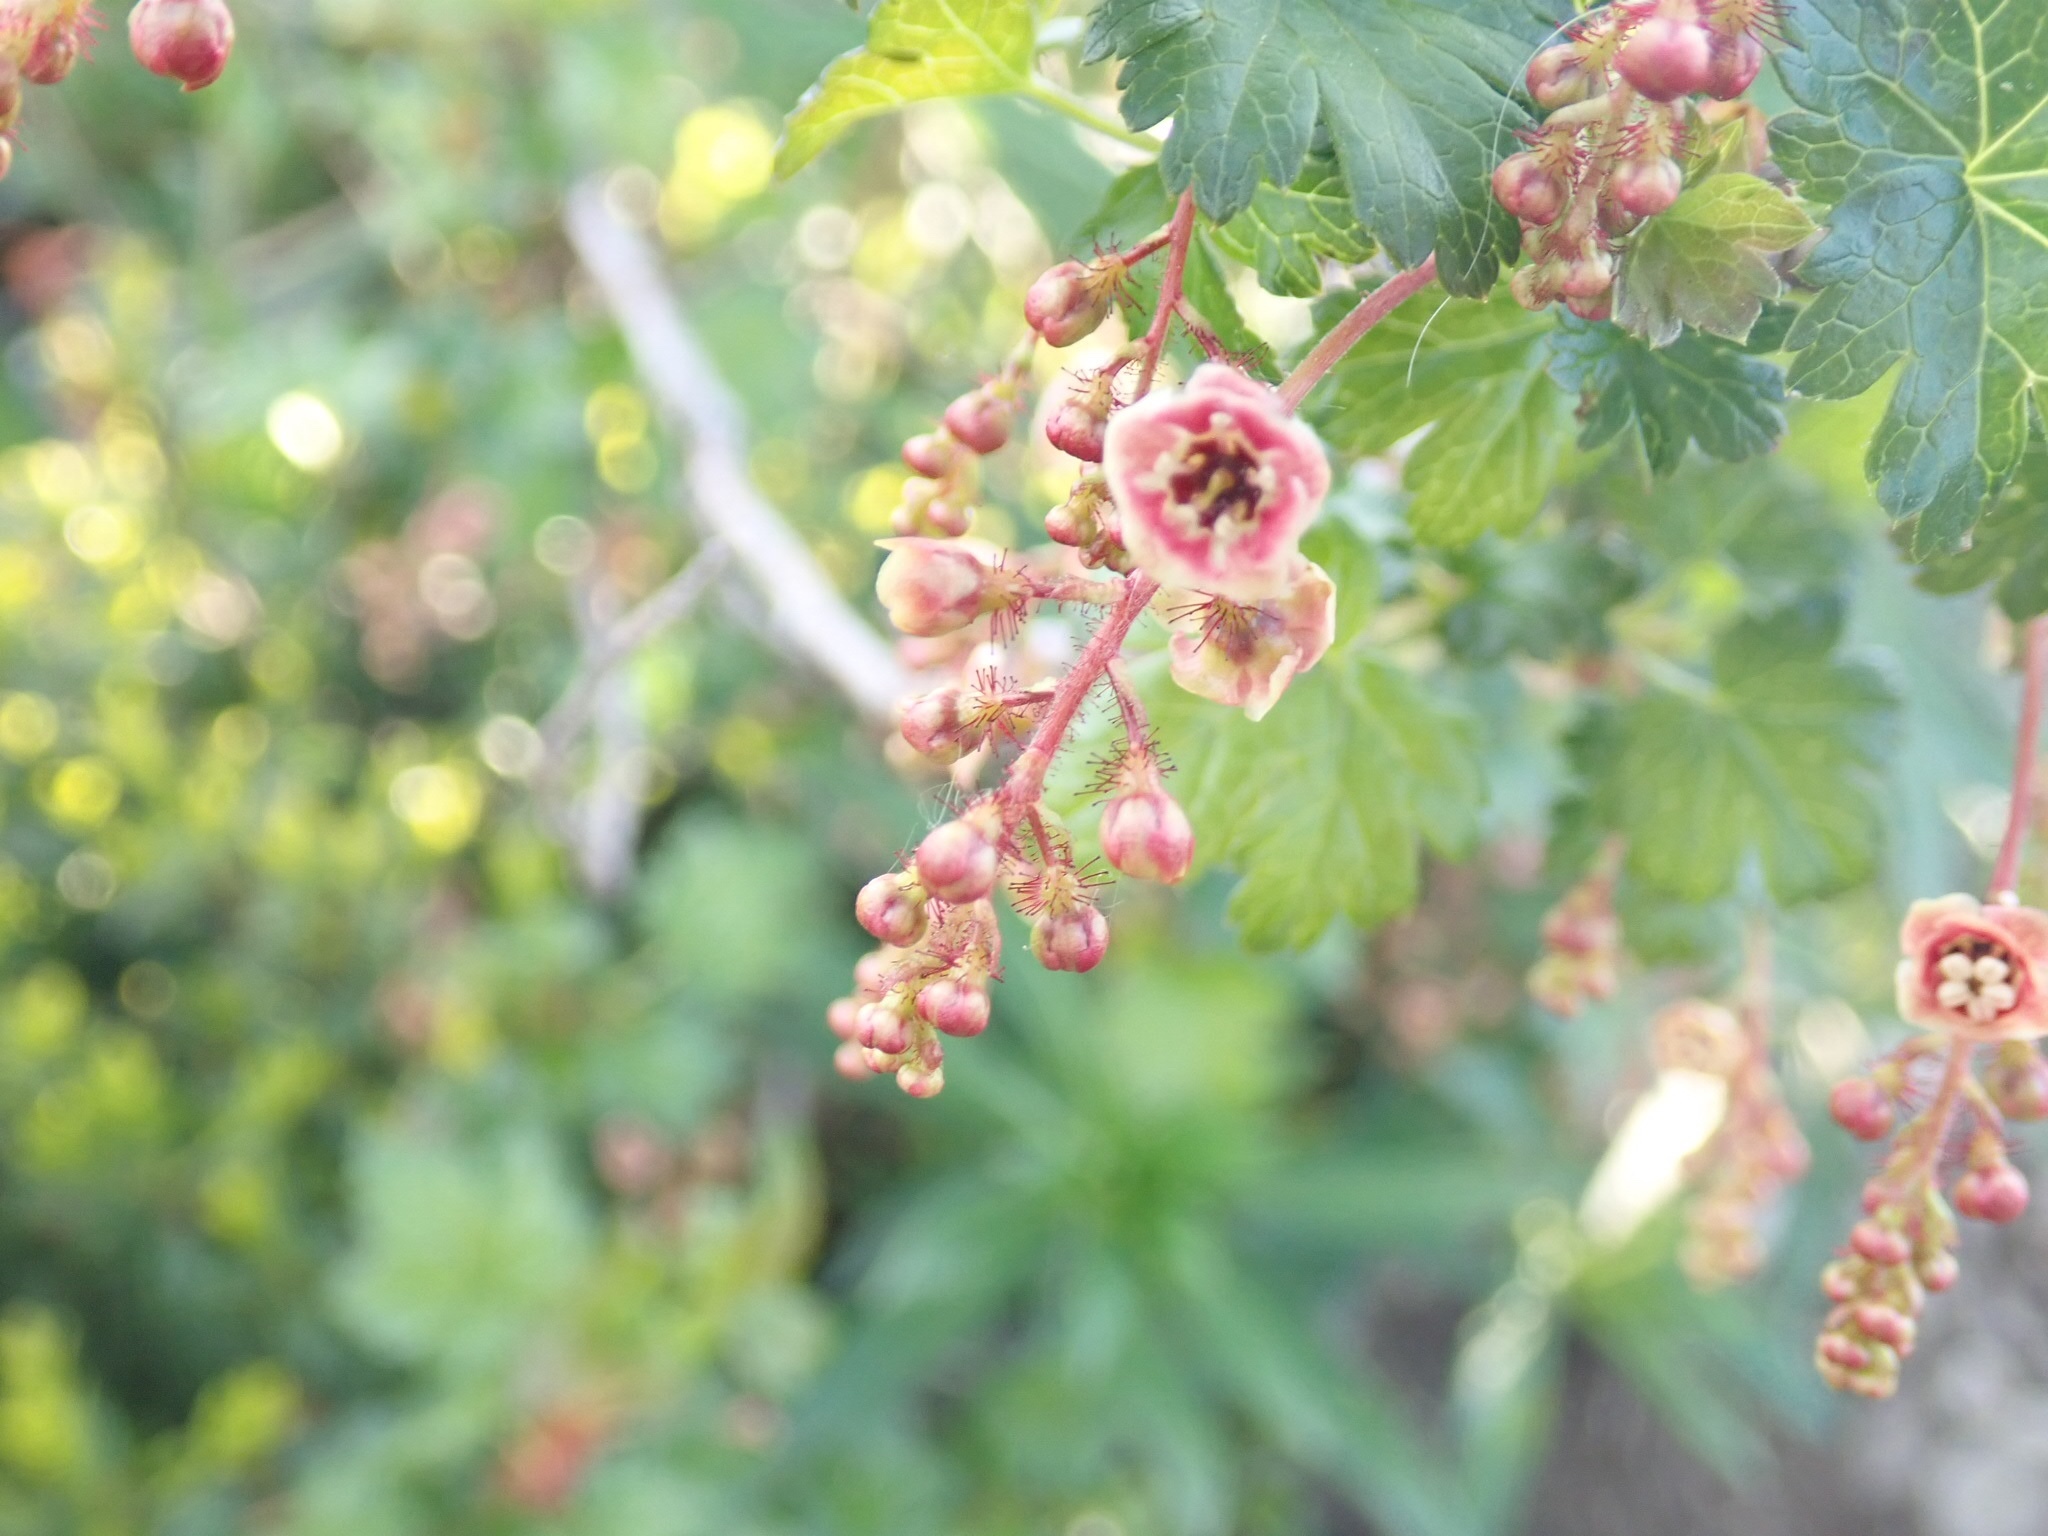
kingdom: Plantae
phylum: Tracheophyta
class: Magnoliopsida
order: Saxifragales
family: Grossulariaceae
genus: Ribes
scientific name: Ribes lacustre
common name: Black gooseberry
